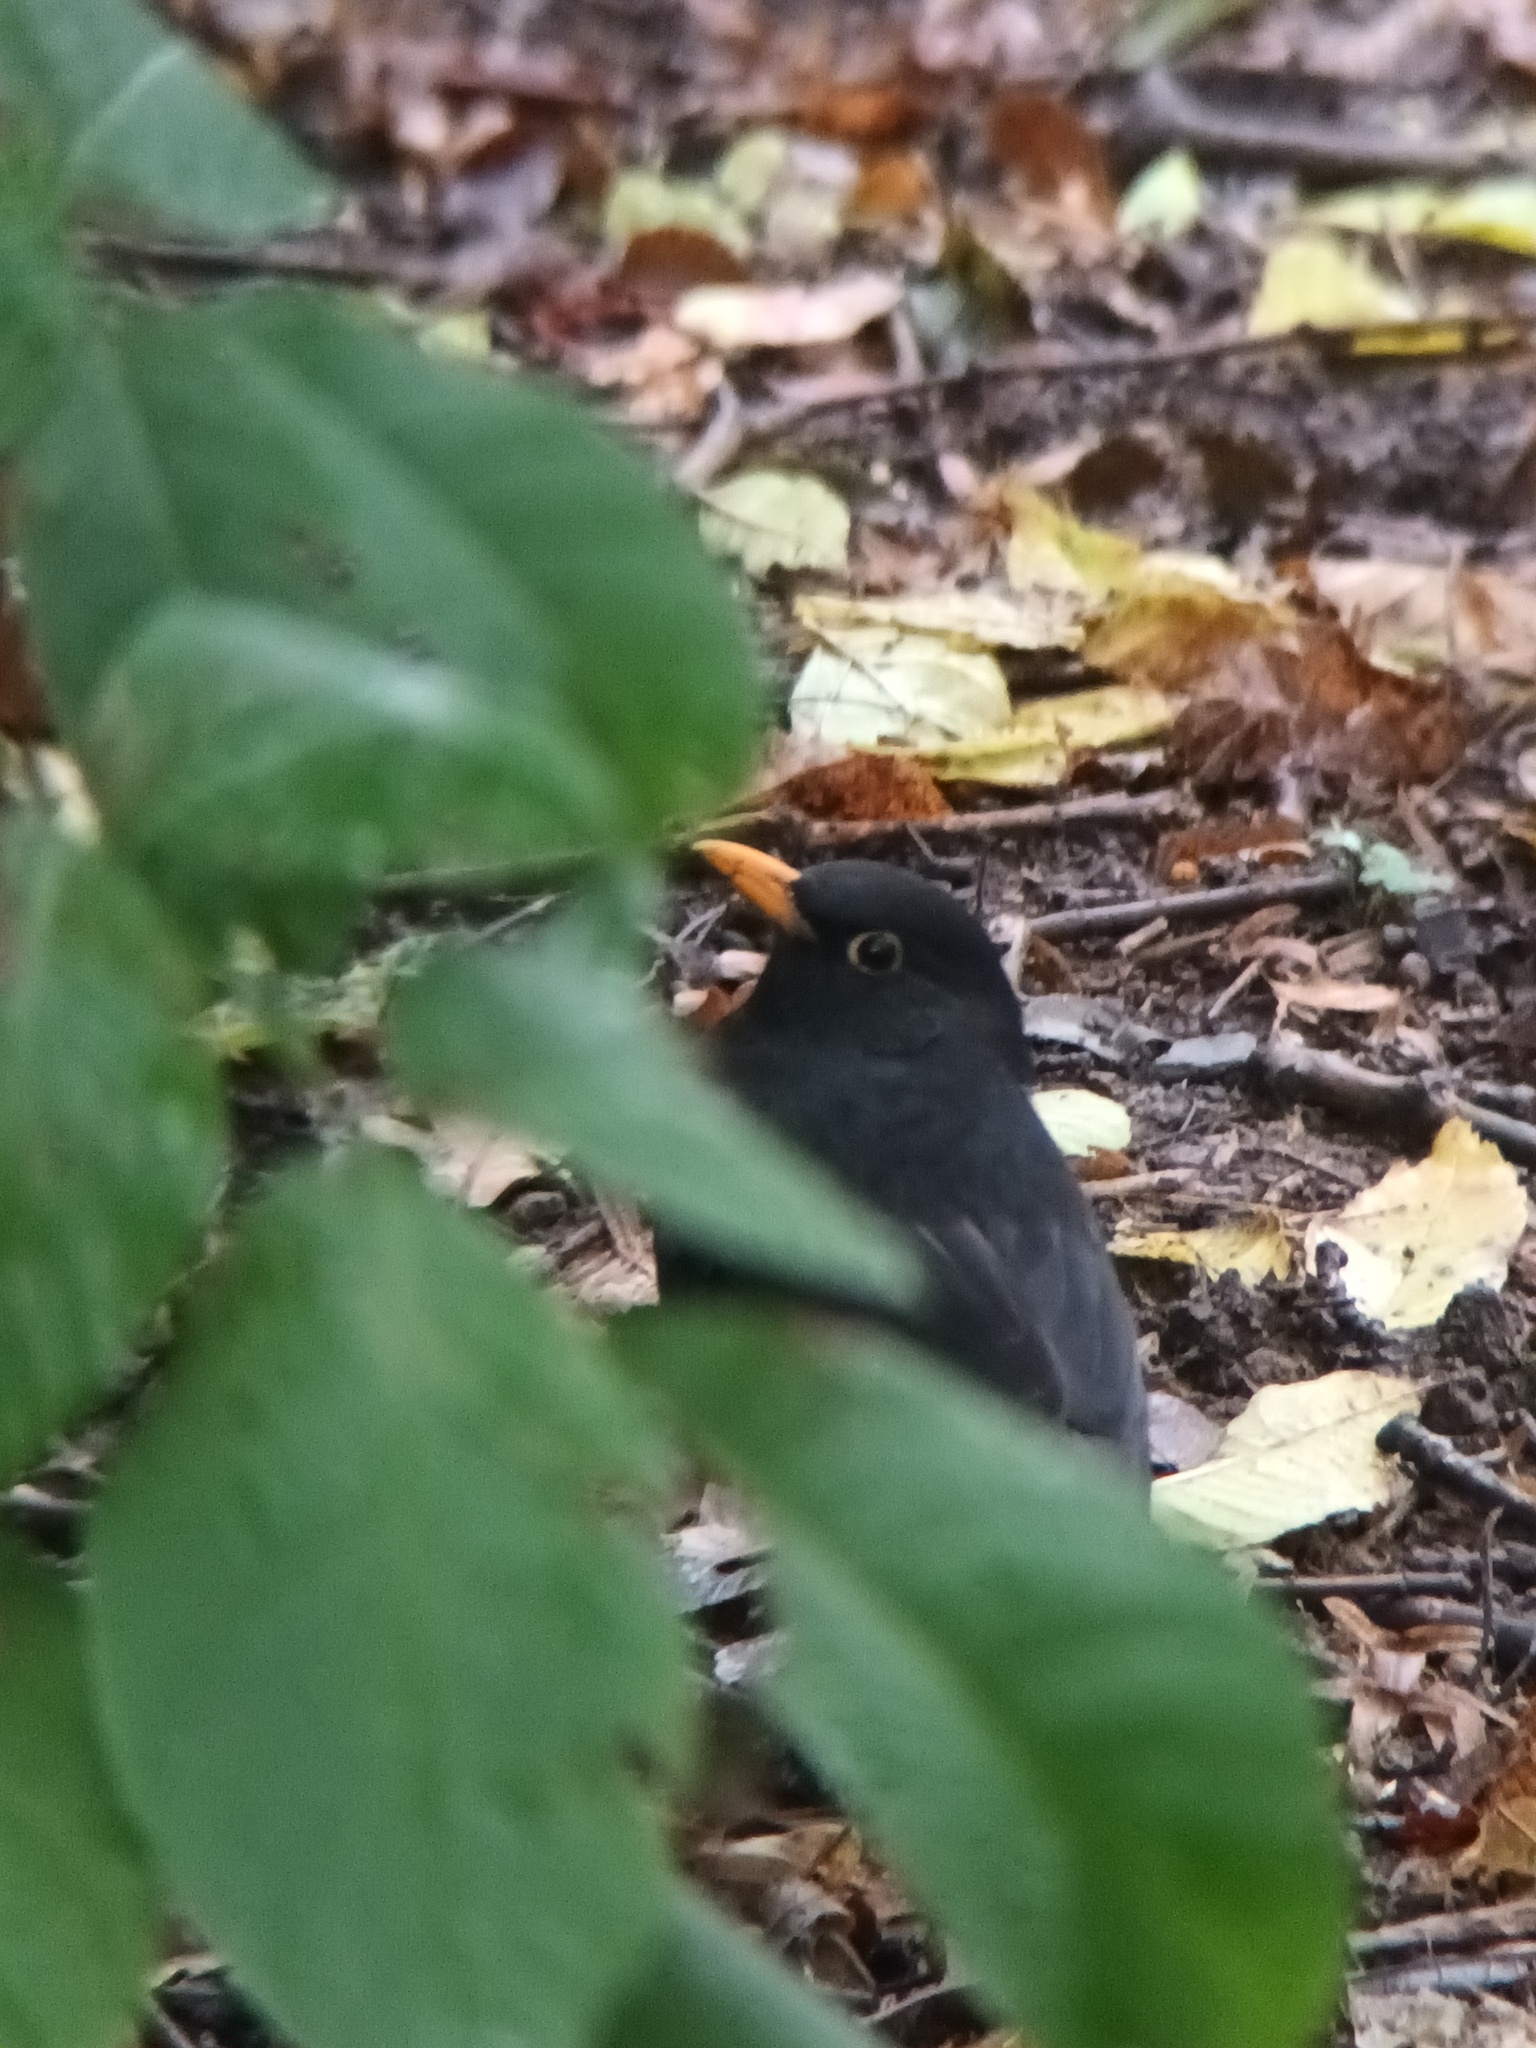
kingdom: Animalia
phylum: Chordata
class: Aves
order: Passeriformes
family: Turdidae
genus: Turdus
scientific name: Turdus merula
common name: Common blackbird
